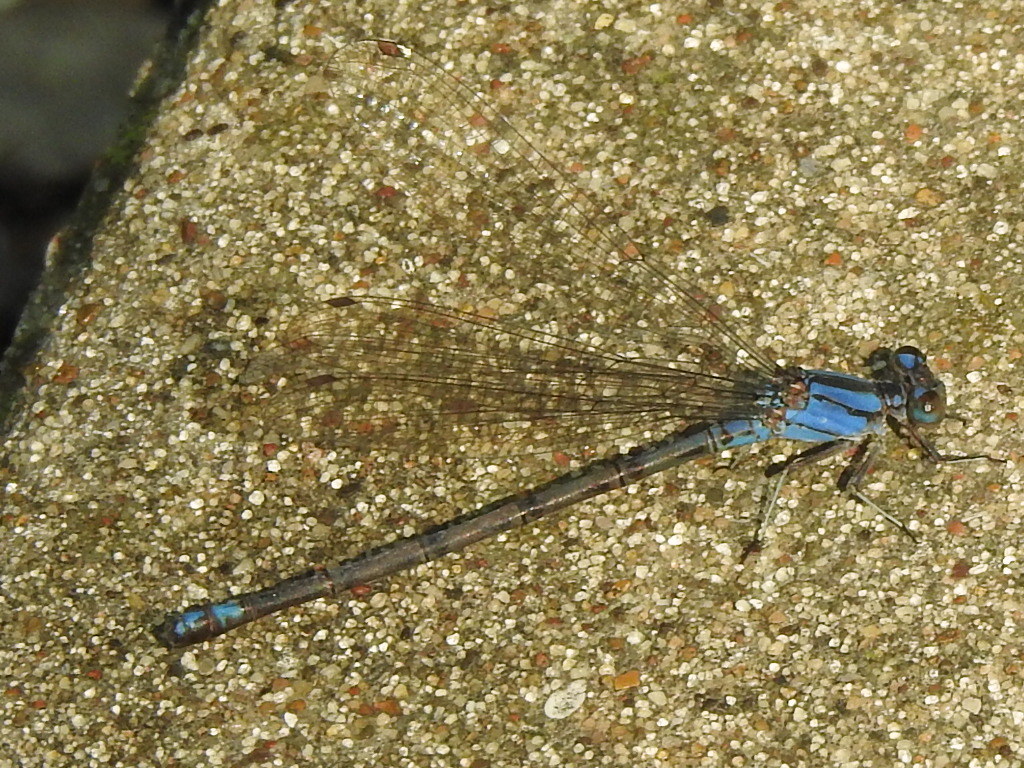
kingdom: Animalia
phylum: Arthropoda
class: Insecta
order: Odonata
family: Coenagrionidae
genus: Argia
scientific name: Argia funebris
